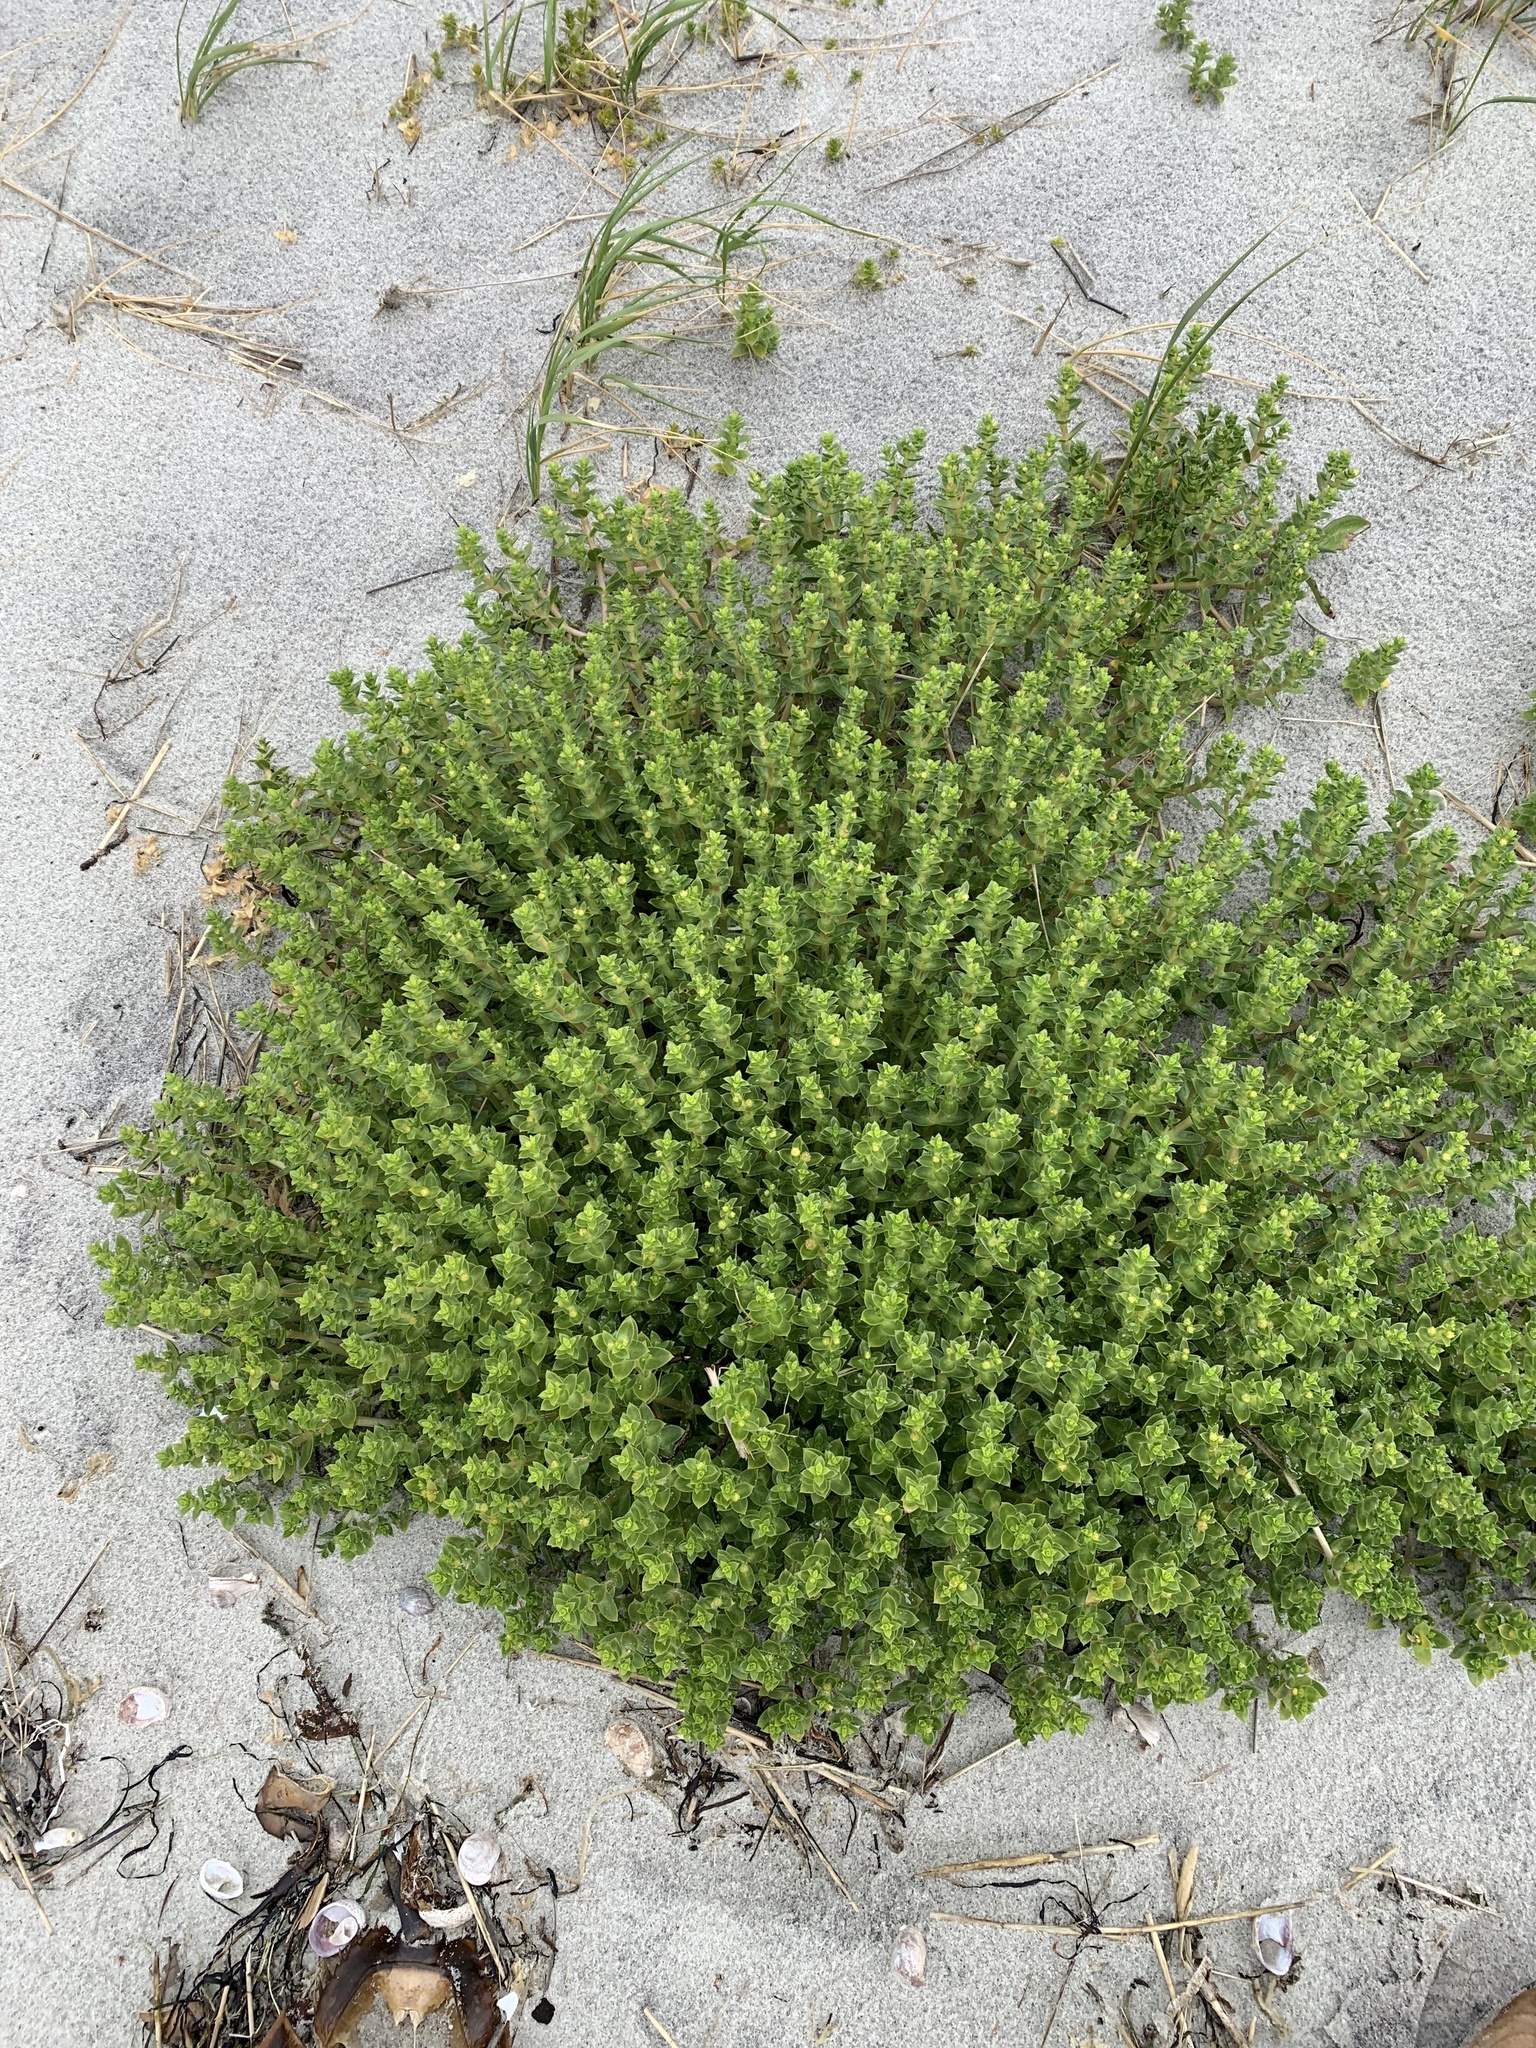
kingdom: Plantae
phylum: Tracheophyta
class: Magnoliopsida
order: Caryophyllales
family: Caryophyllaceae
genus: Honckenya
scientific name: Honckenya peploides
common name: Sea sandwort
